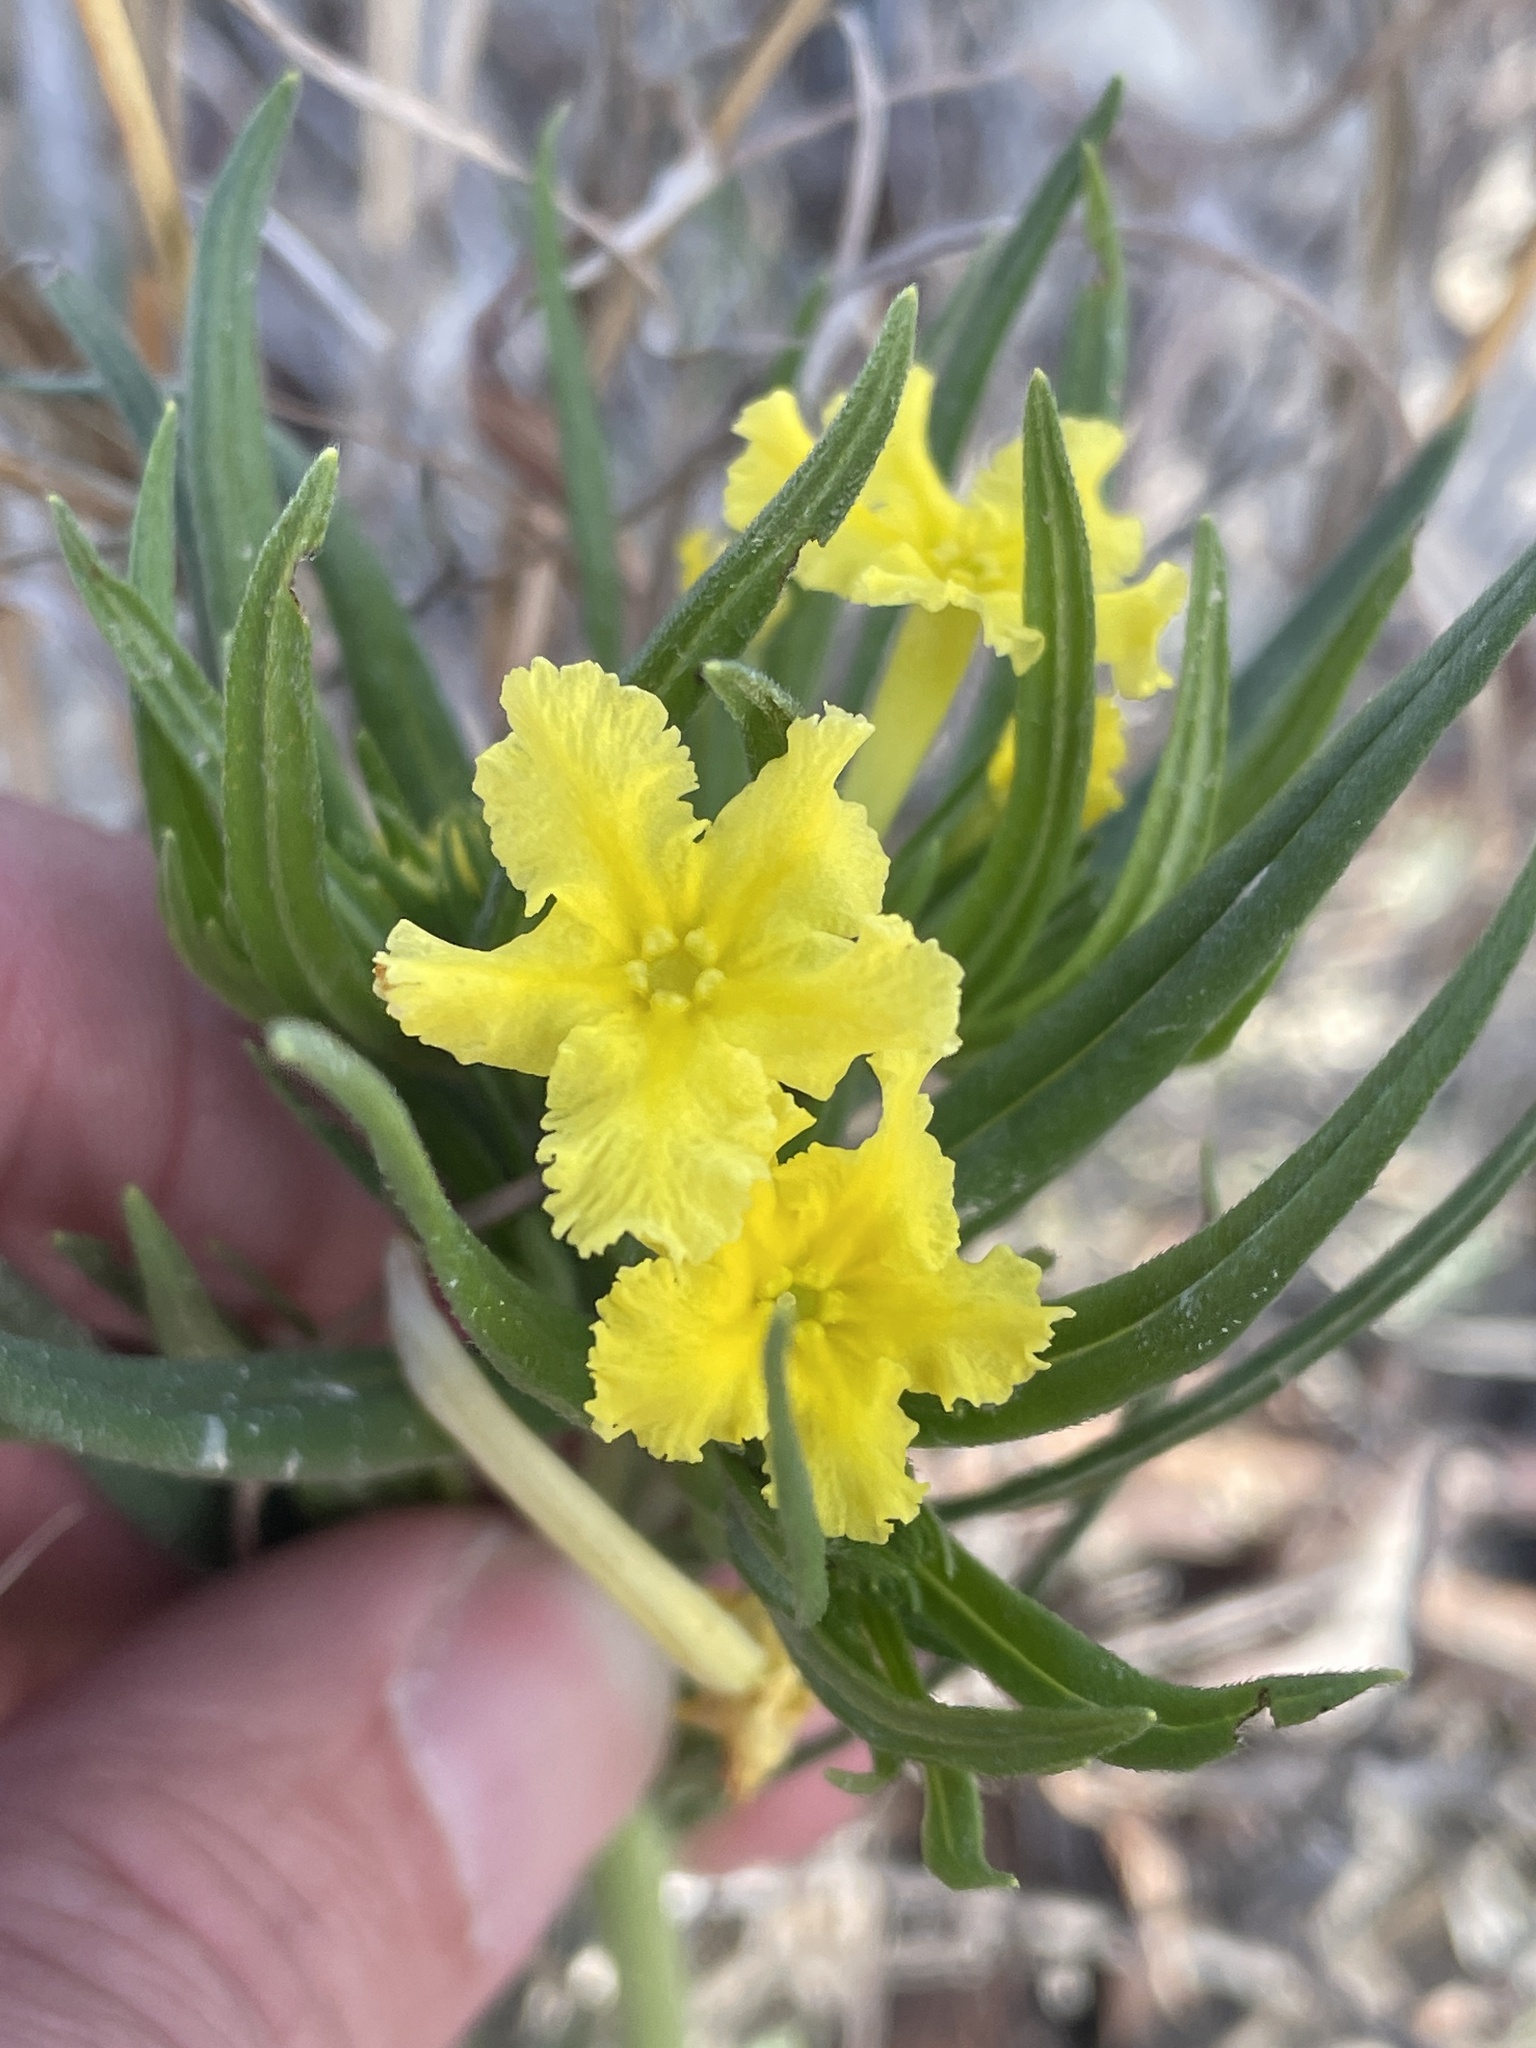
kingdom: Plantae
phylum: Tracheophyta
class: Magnoliopsida
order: Boraginales
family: Boraginaceae
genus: Lithospermum
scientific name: Lithospermum incisum
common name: Fringed gromwell
